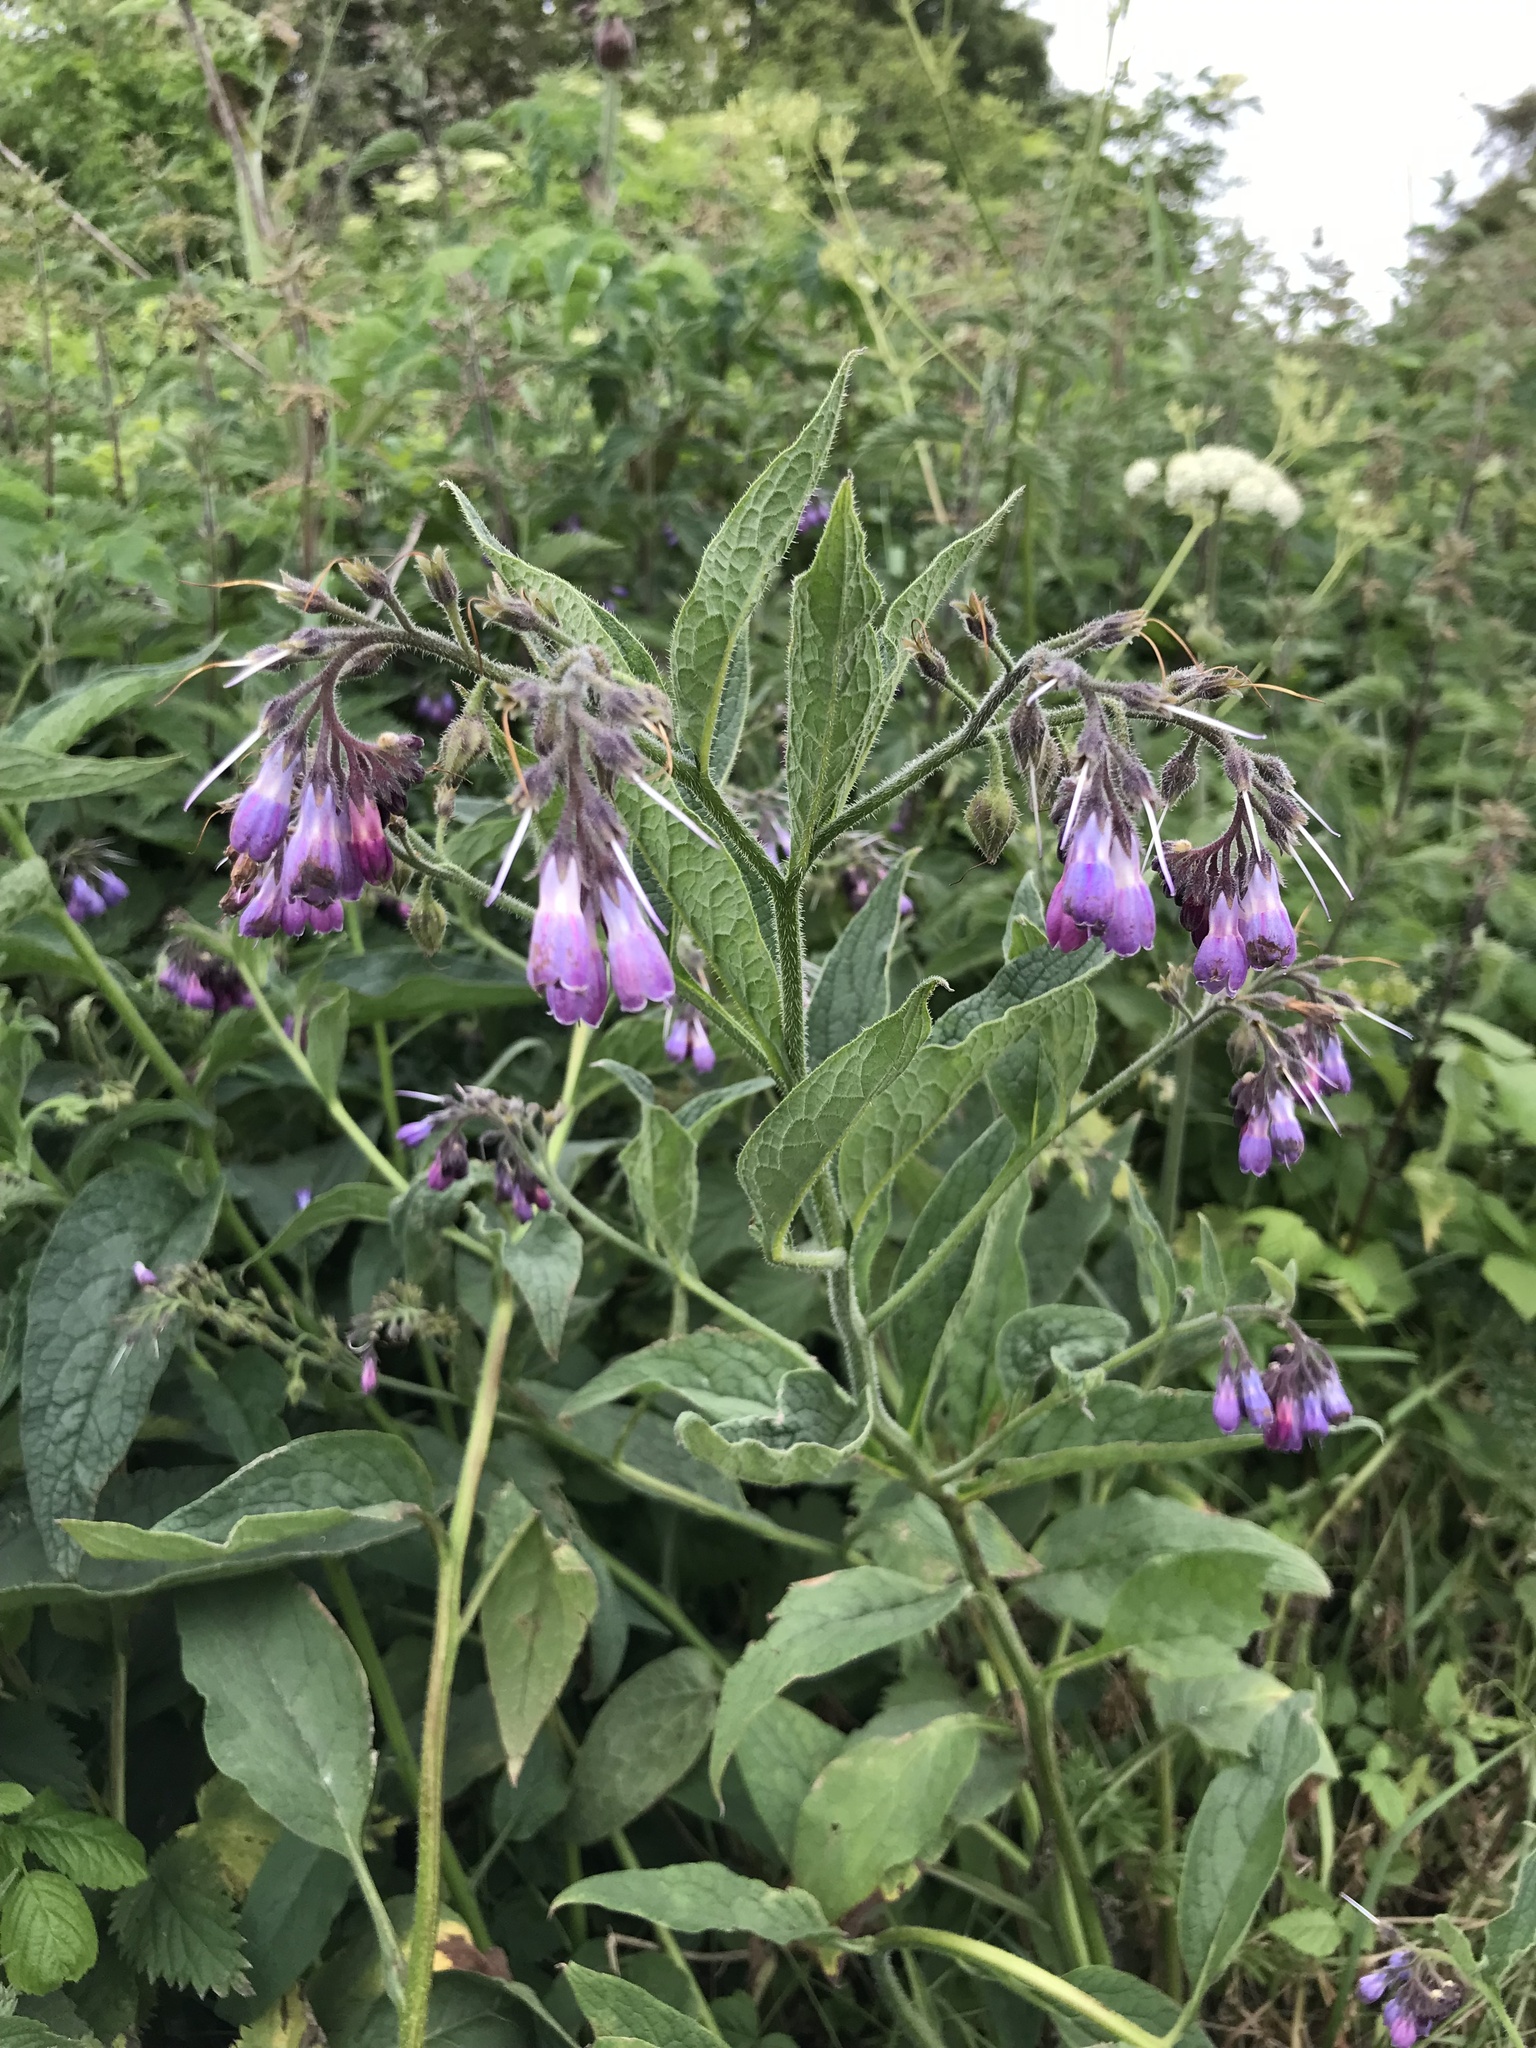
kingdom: Plantae
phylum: Tracheophyta
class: Magnoliopsida
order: Boraginales
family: Boraginaceae
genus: Symphytum
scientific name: Symphytum officinale
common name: Common comfrey
